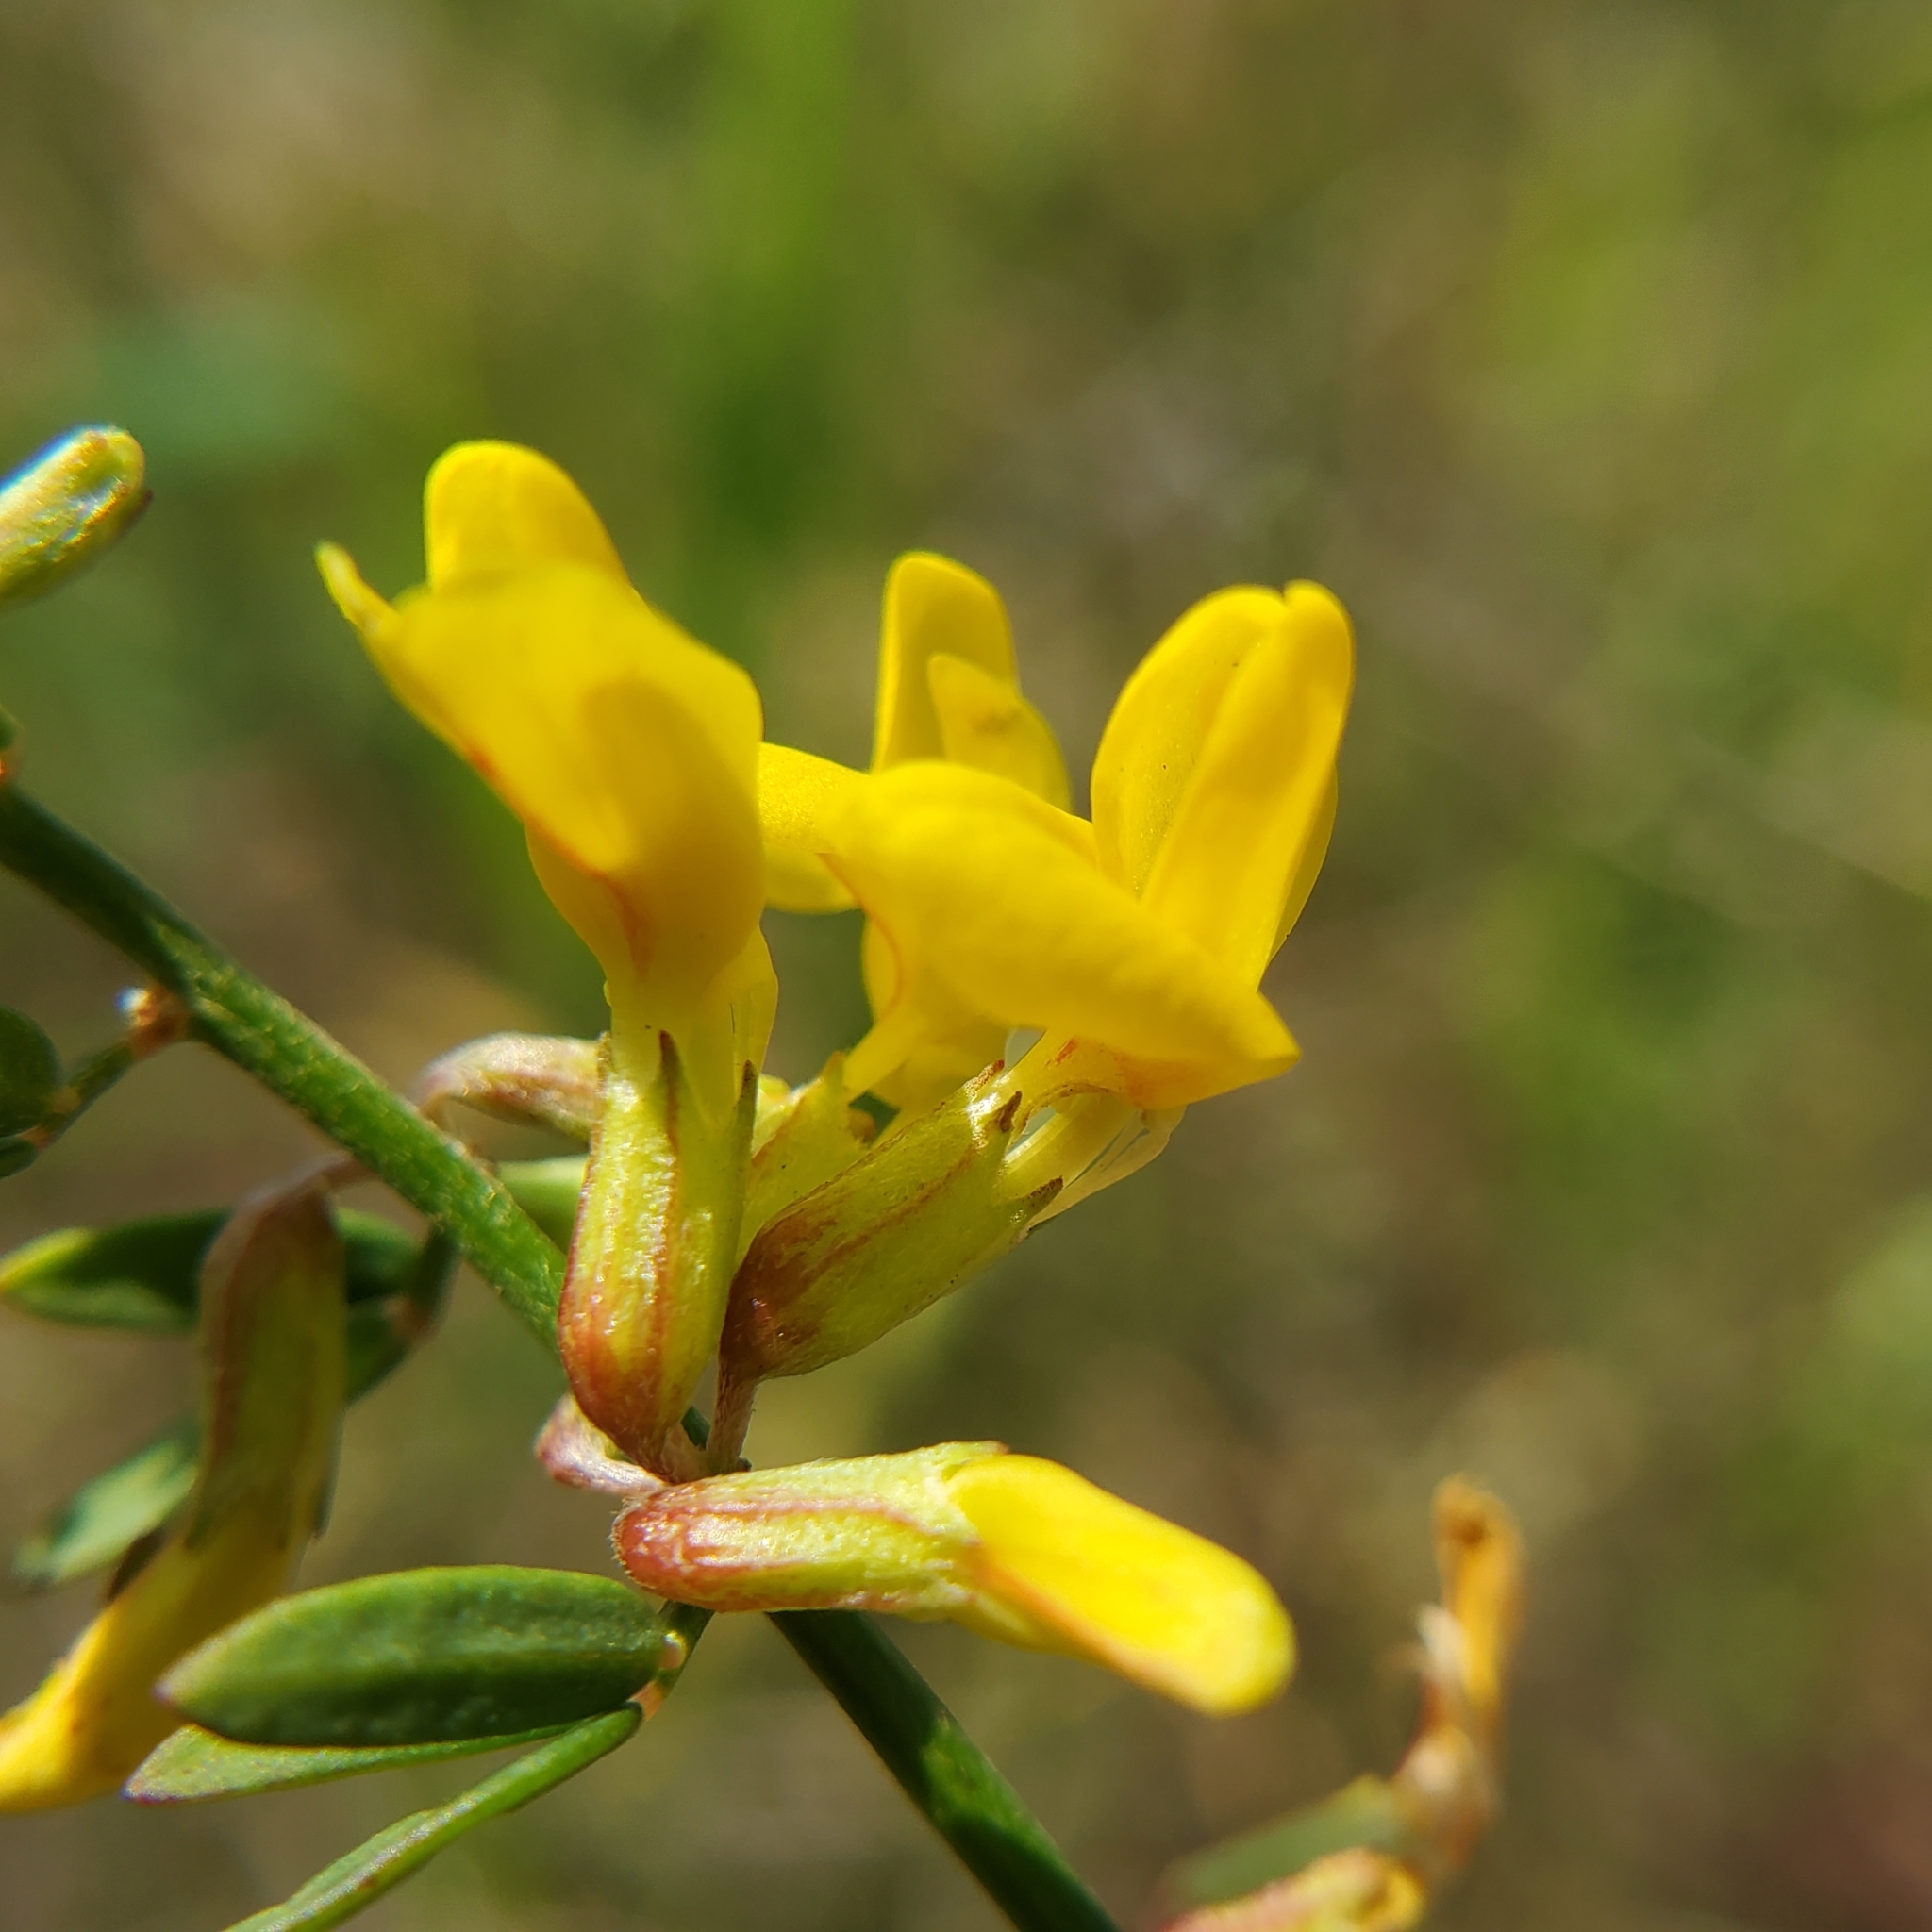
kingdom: Plantae
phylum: Tracheophyta
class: Magnoliopsida
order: Fabales
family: Fabaceae
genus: Acmispon
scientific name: Acmispon glaber
